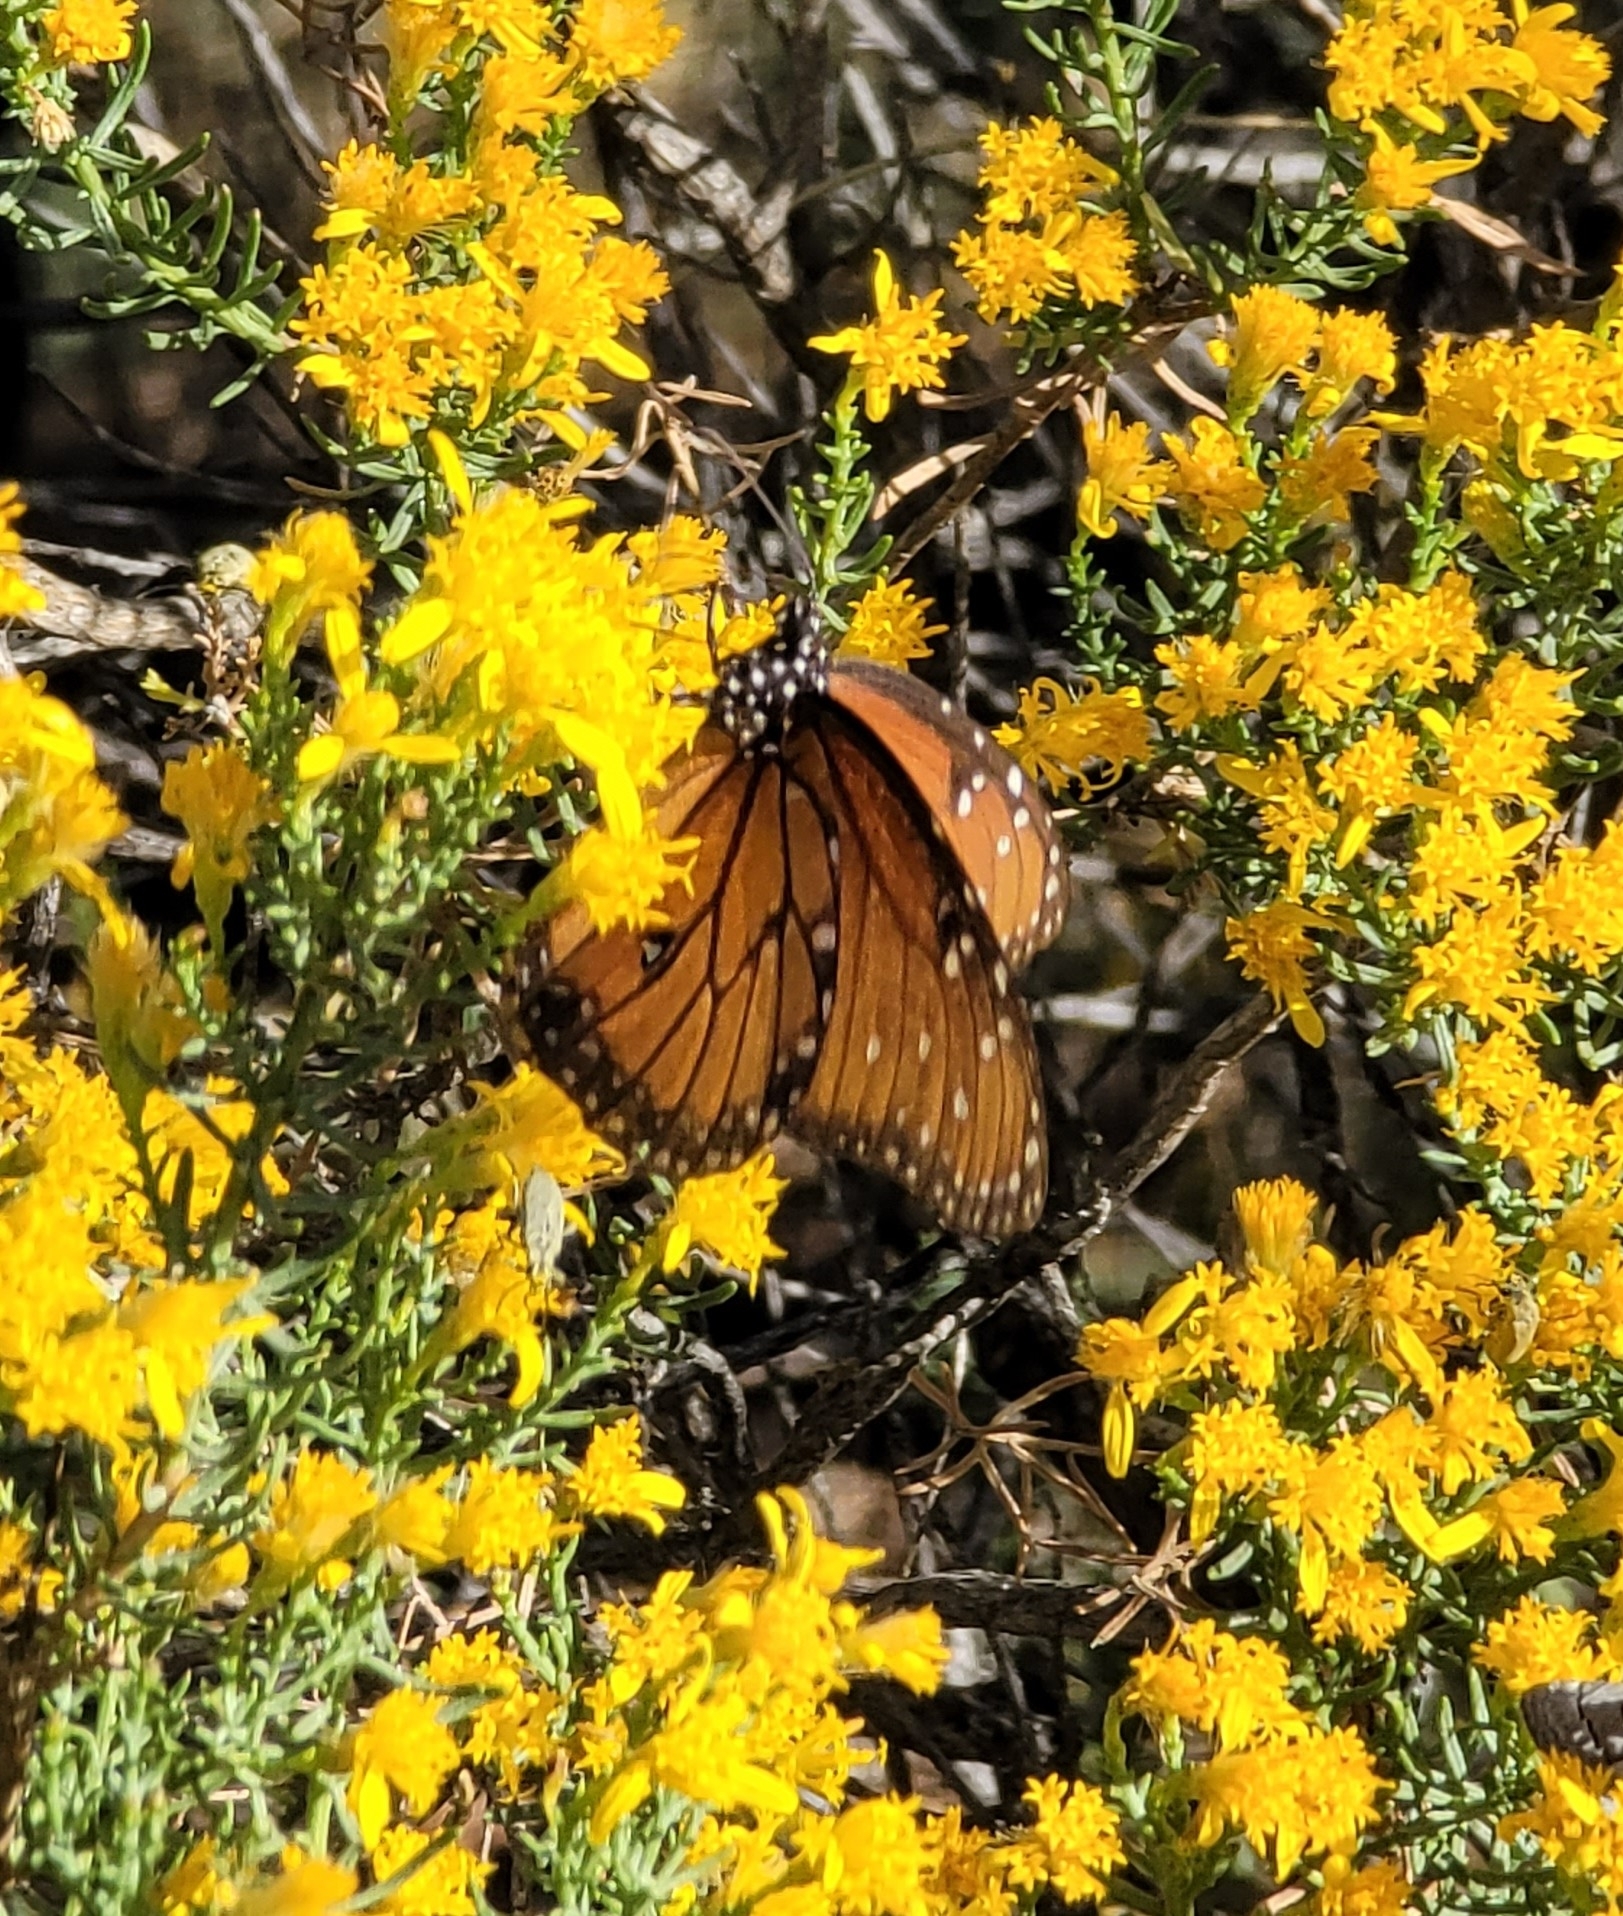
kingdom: Animalia
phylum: Arthropoda
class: Insecta
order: Lepidoptera
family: Nymphalidae
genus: Danaus
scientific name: Danaus gilippus
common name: Queen
